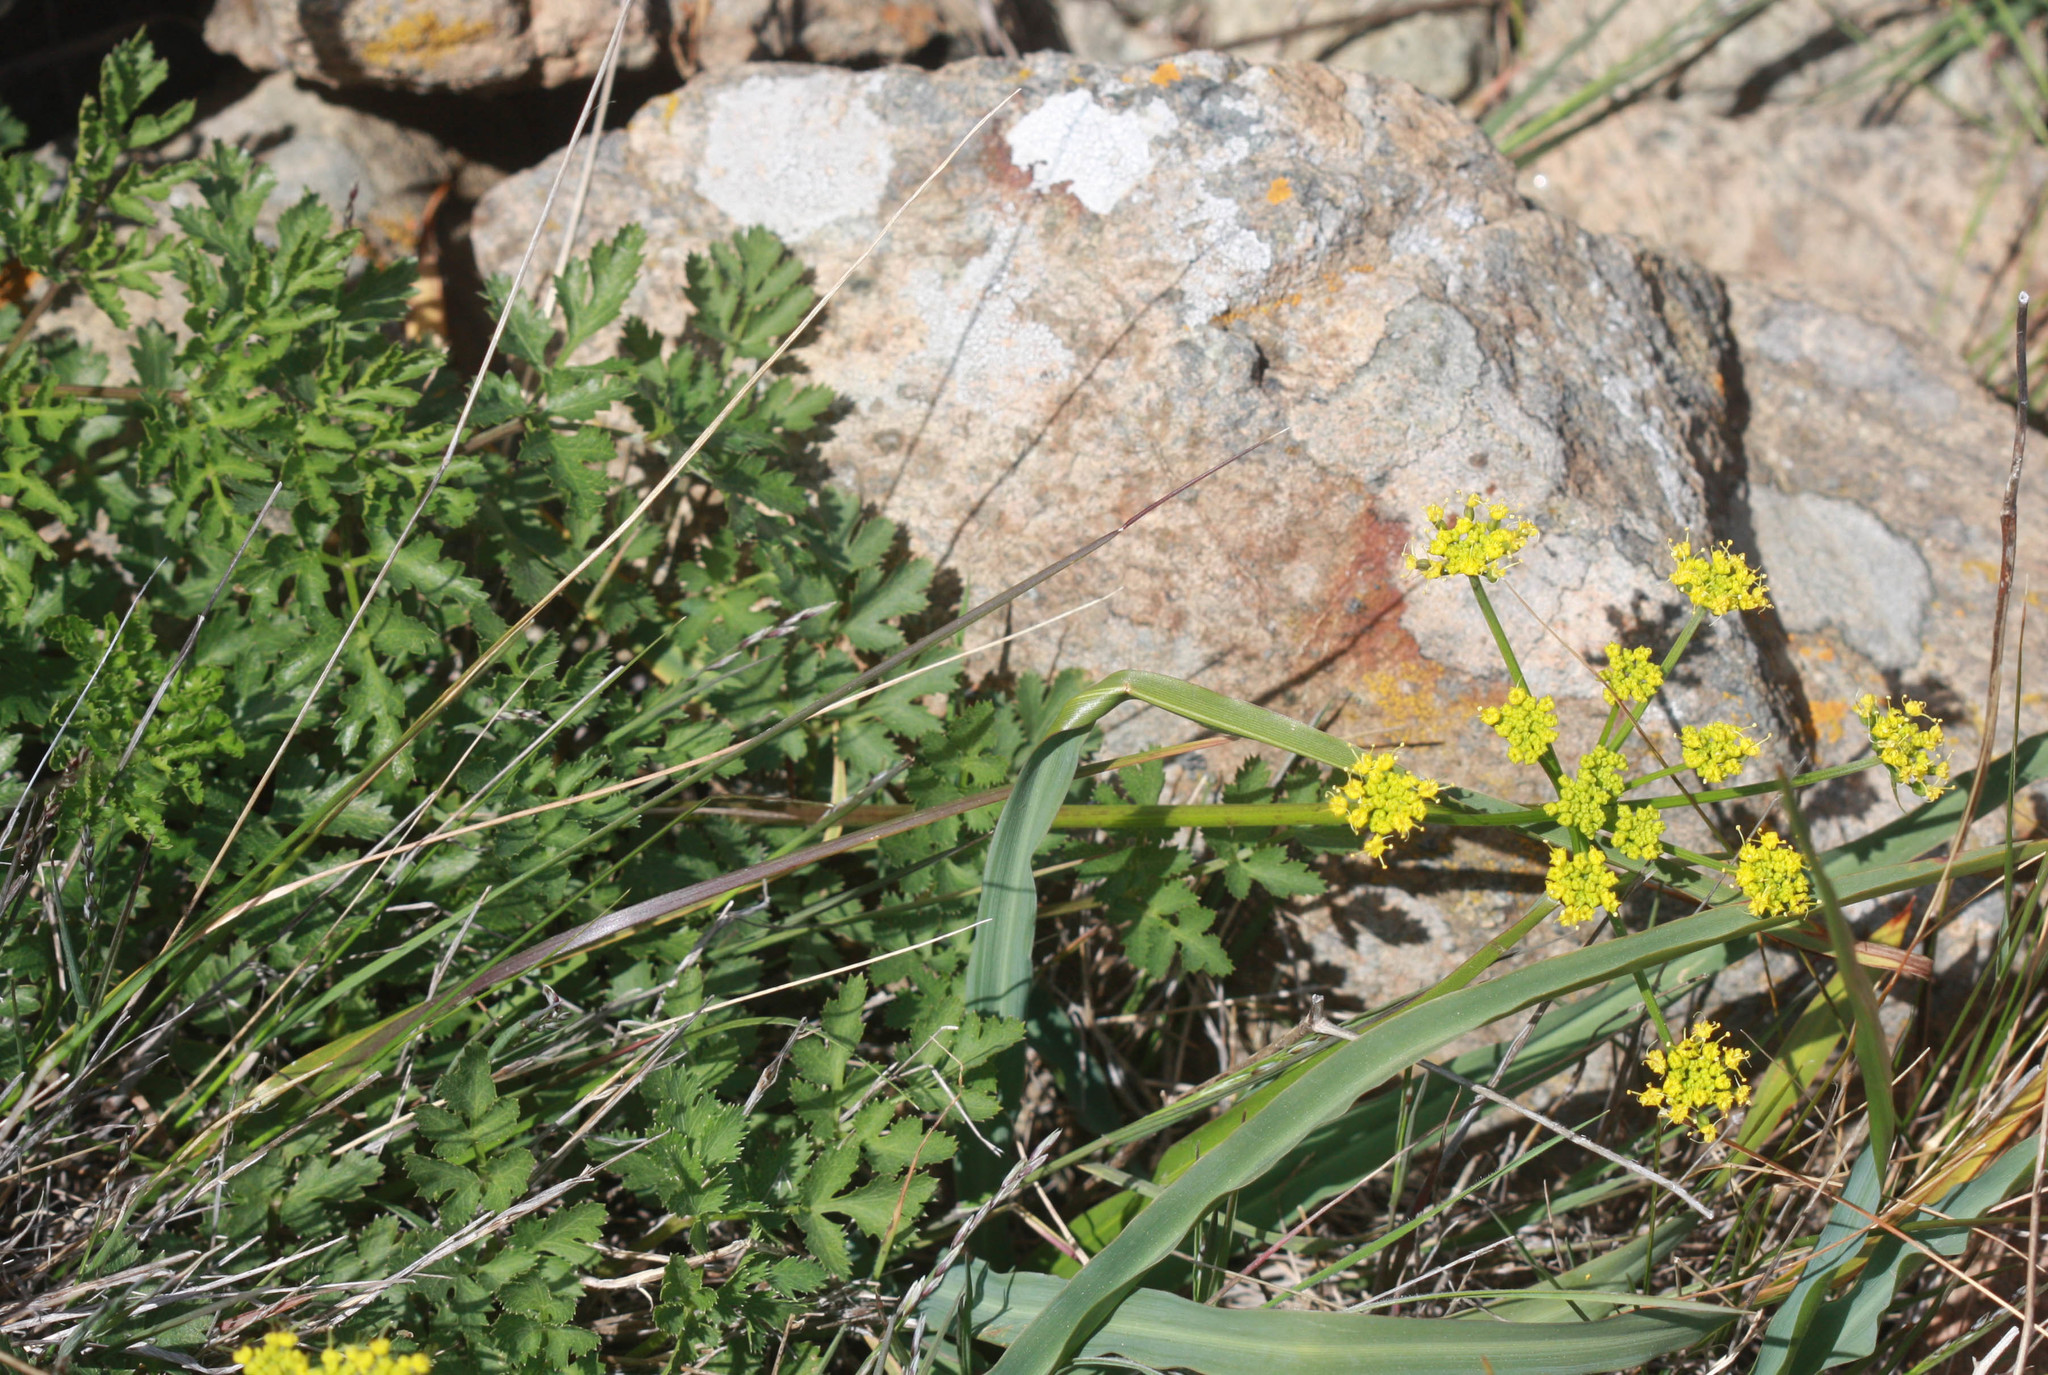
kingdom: Plantae
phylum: Tracheophyta
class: Magnoliopsida
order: Apiales
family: Apiaceae
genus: Tauschia
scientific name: Tauschia kelloggii
